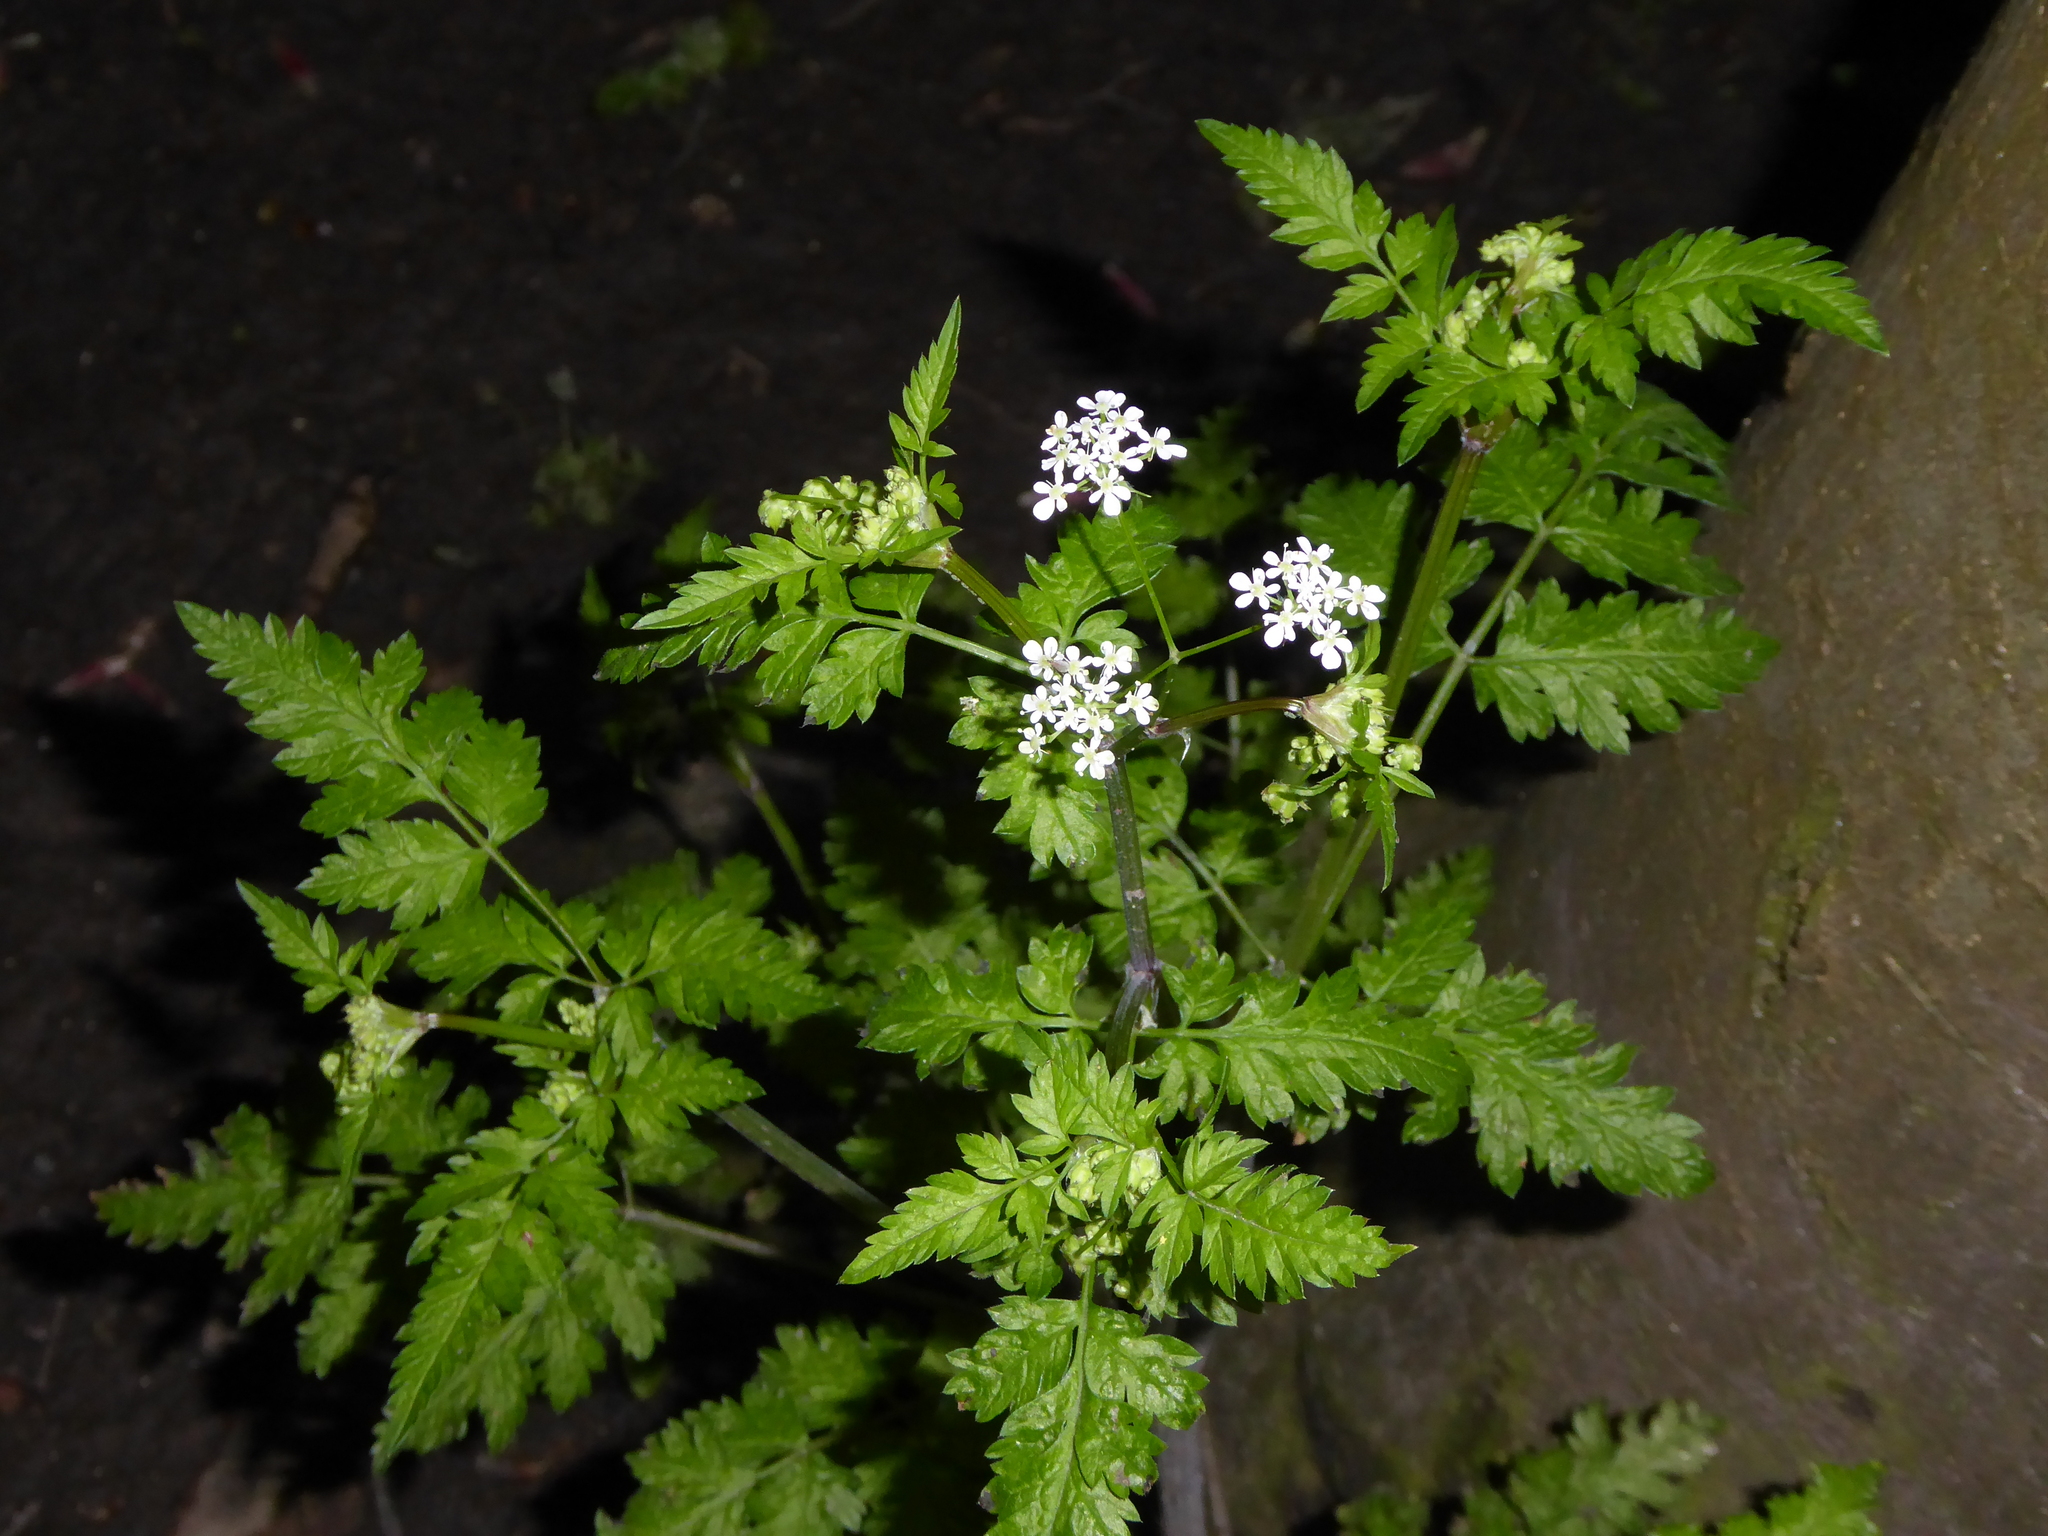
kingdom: Plantae
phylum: Tracheophyta
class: Magnoliopsida
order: Apiales
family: Apiaceae
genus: Anthriscus
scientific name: Anthriscus sylvestris
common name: Cow parsley
